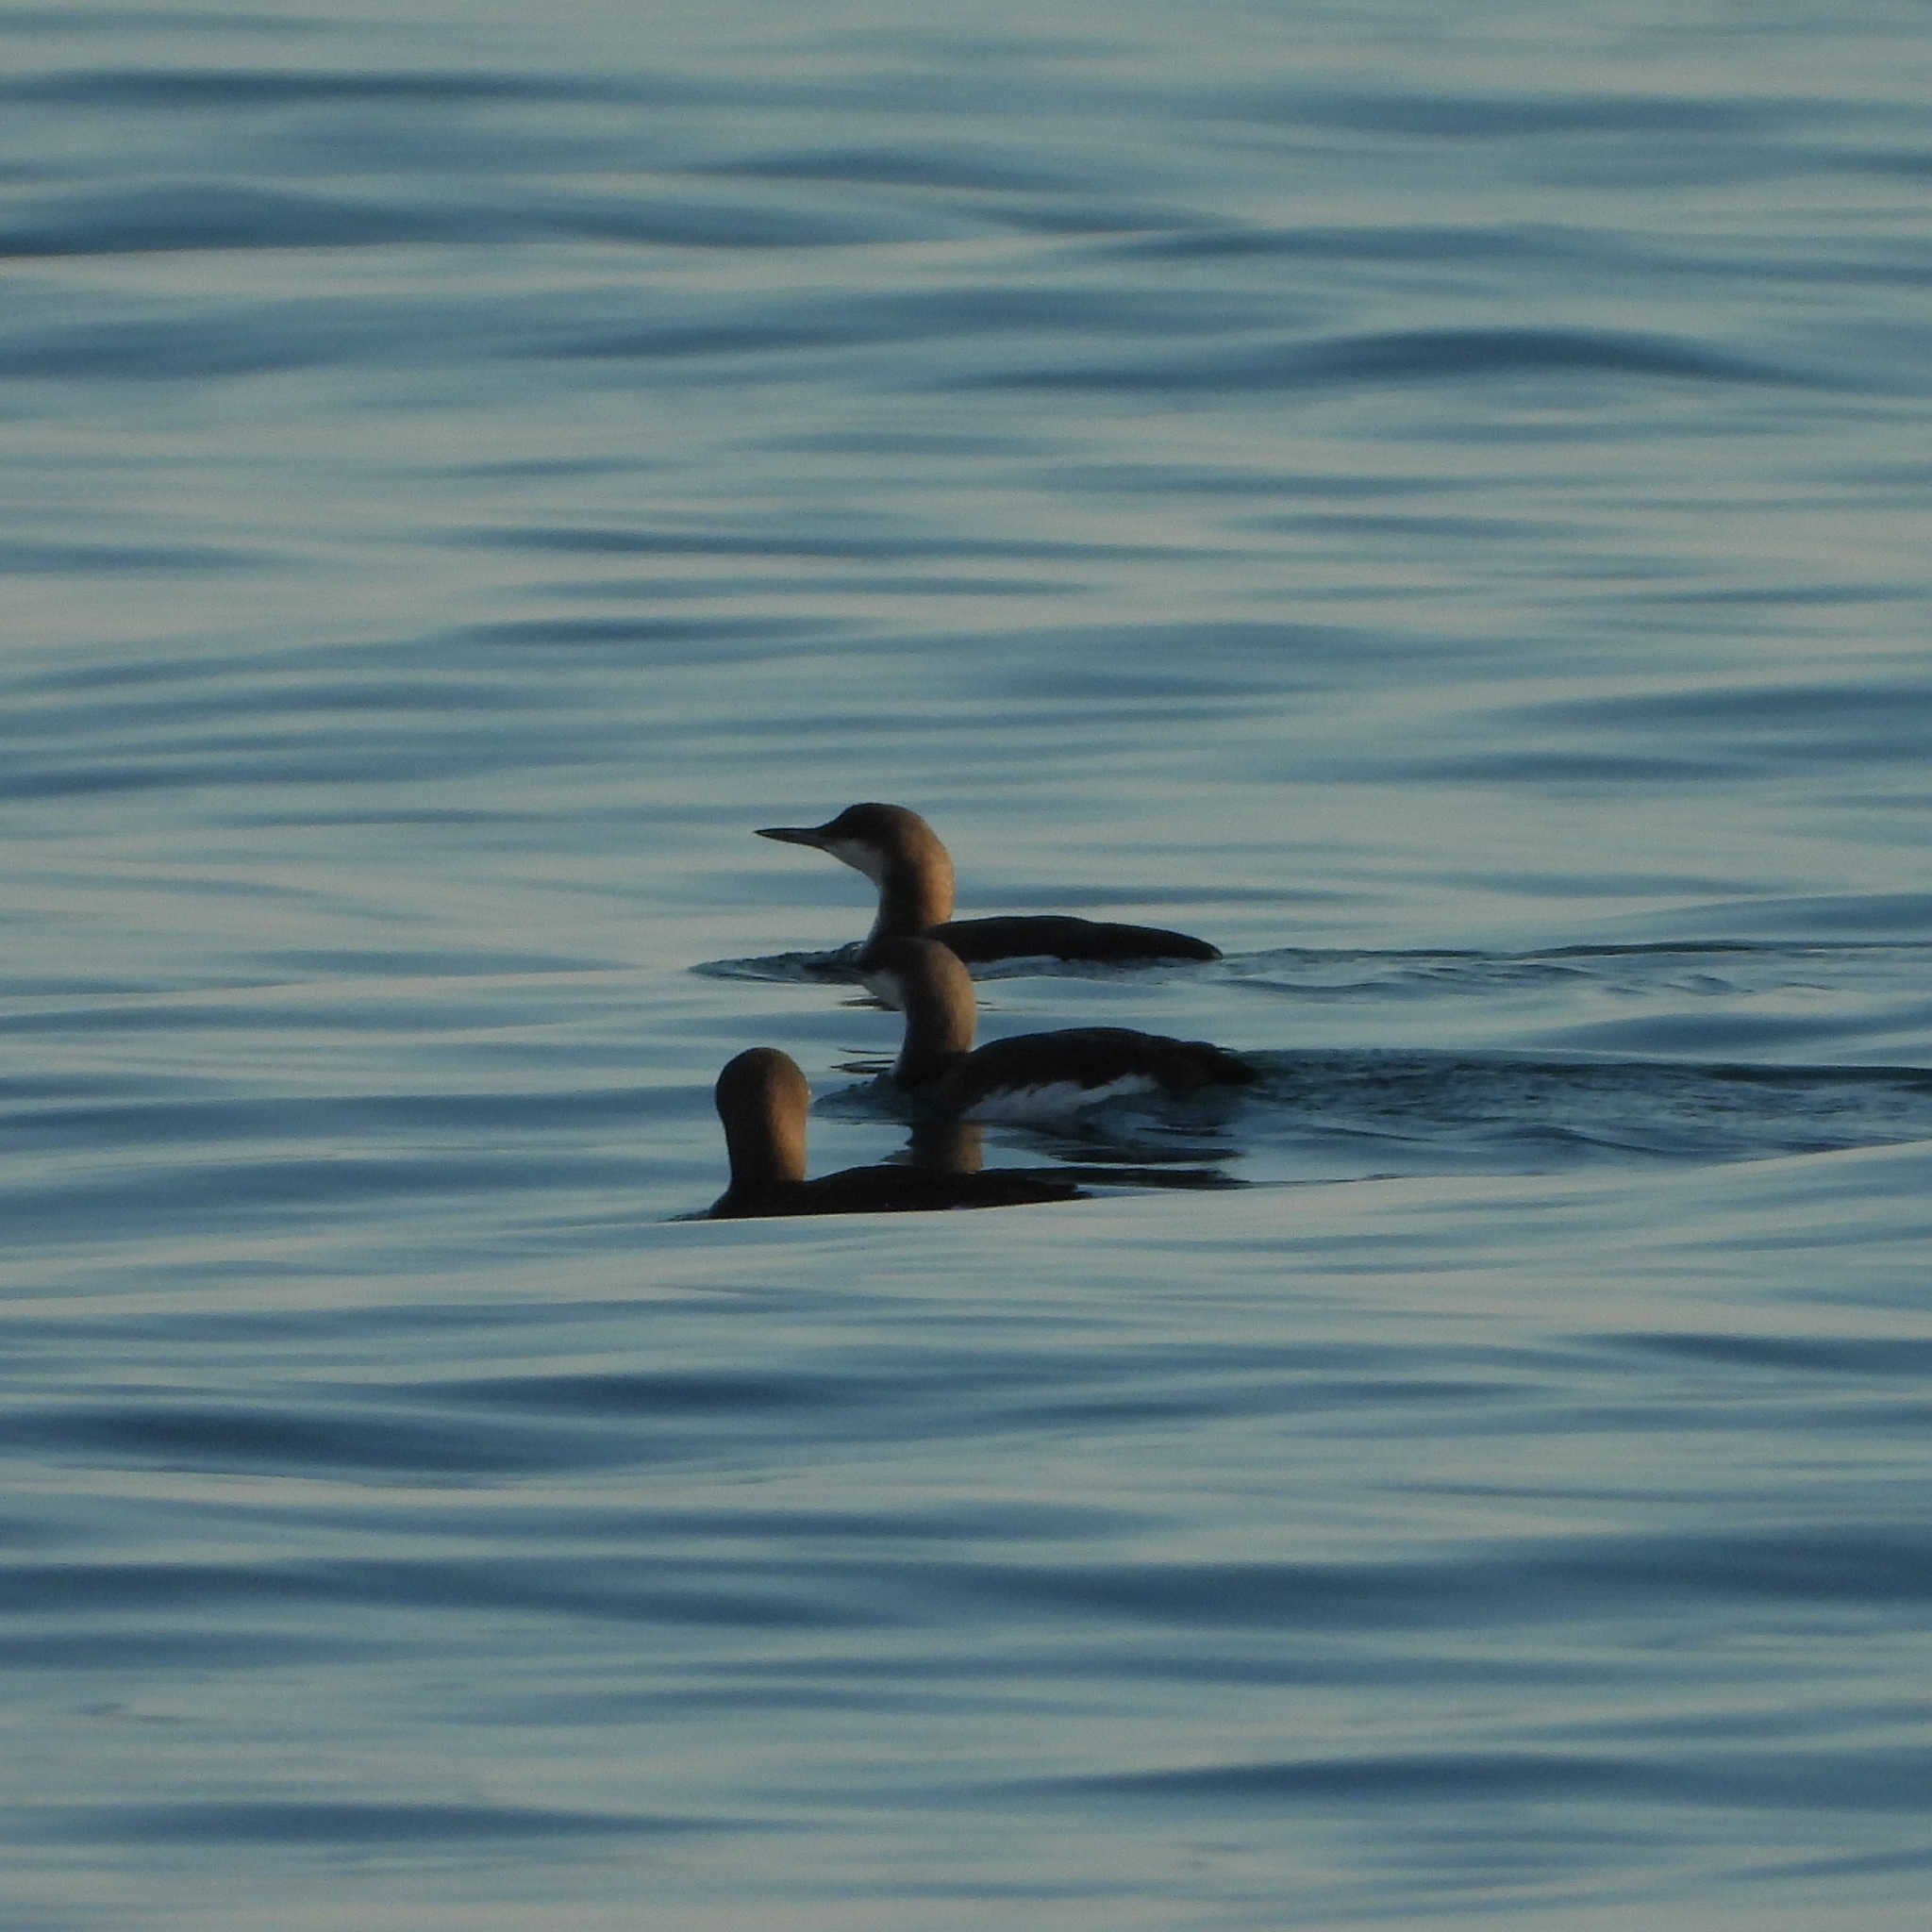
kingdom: Animalia
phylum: Chordata
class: Aves
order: Gaviiformes
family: Gaviidae
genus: Gavia
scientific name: Gavia arctica
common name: Black-throated loon
